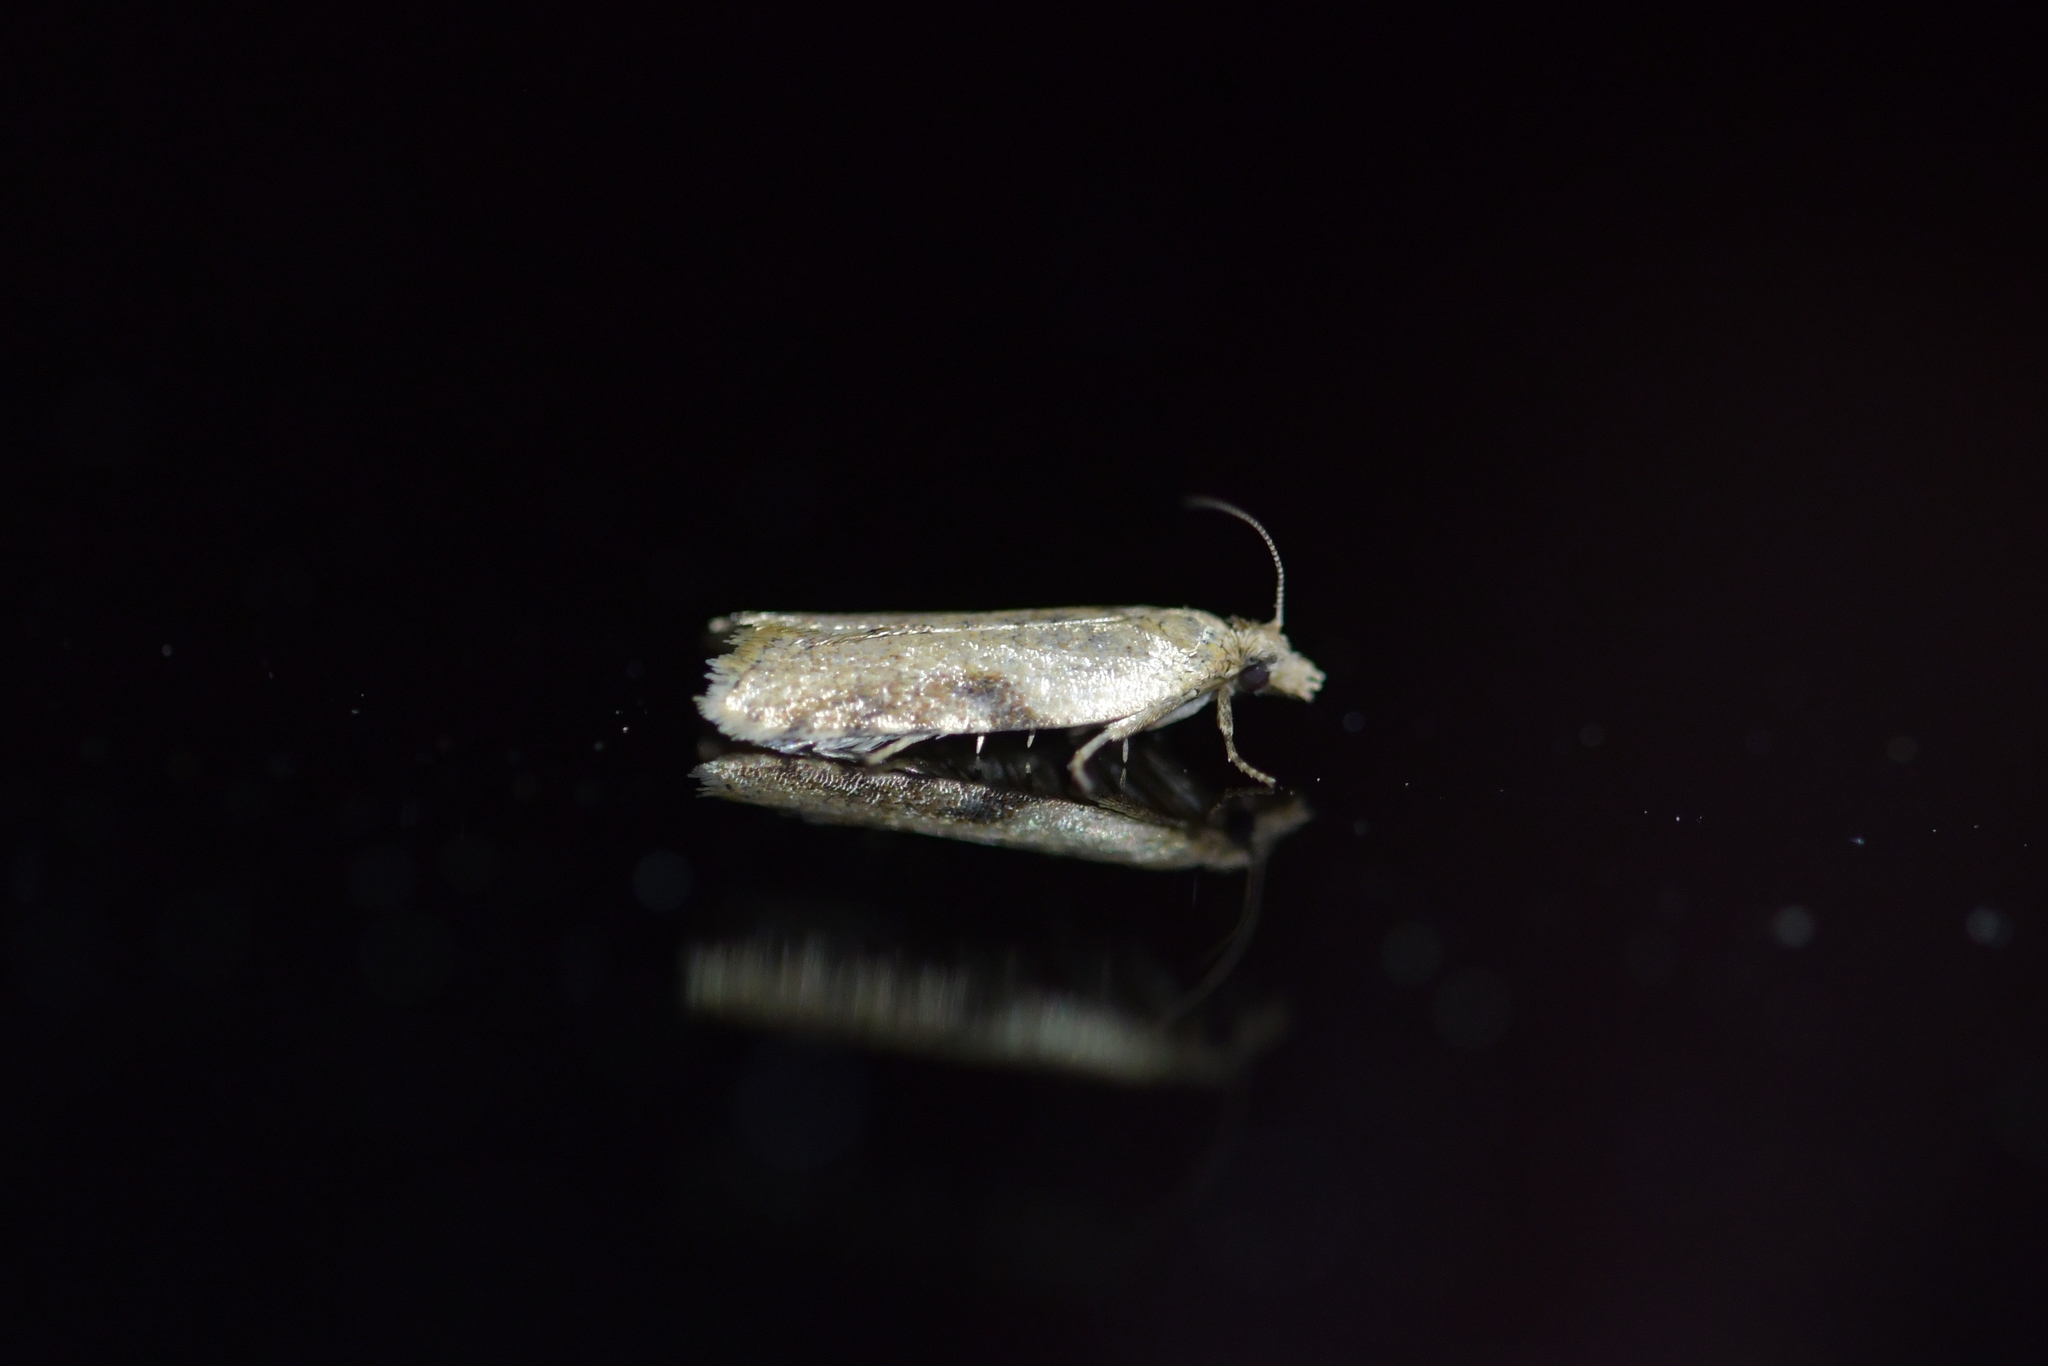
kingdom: Animalia
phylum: Arthropoda
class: Insecta
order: Lepidoptera
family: Tortricidae
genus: Capua
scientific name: Capua semiferana
